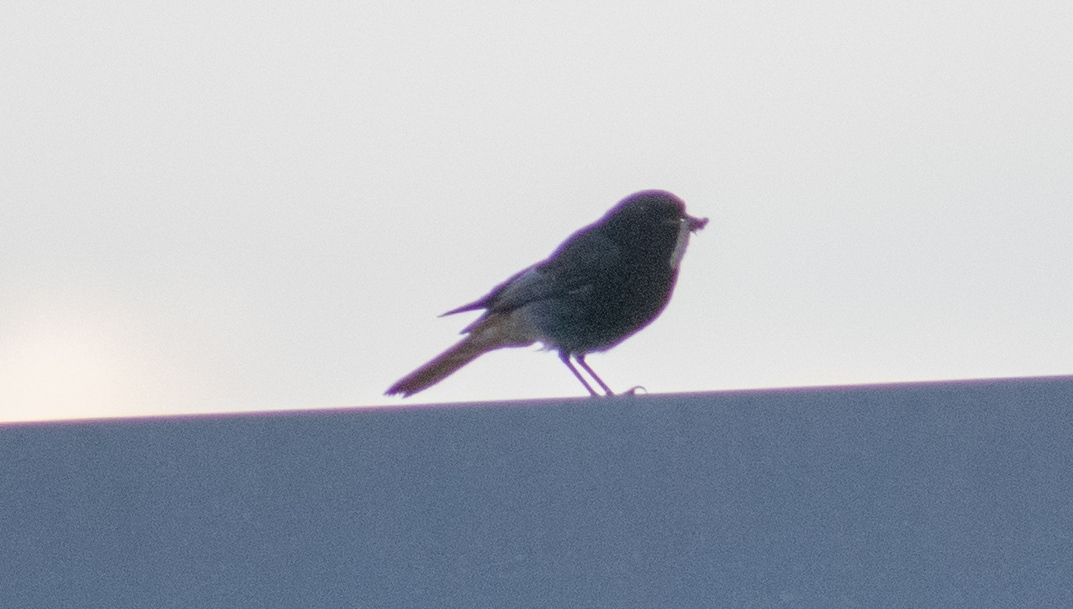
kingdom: Animalia
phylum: Chordata
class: Aves
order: Passeriformes
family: Muscicapidae
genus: Phoenicurus
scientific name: Phoenicurus ochruros
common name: Black redstart
